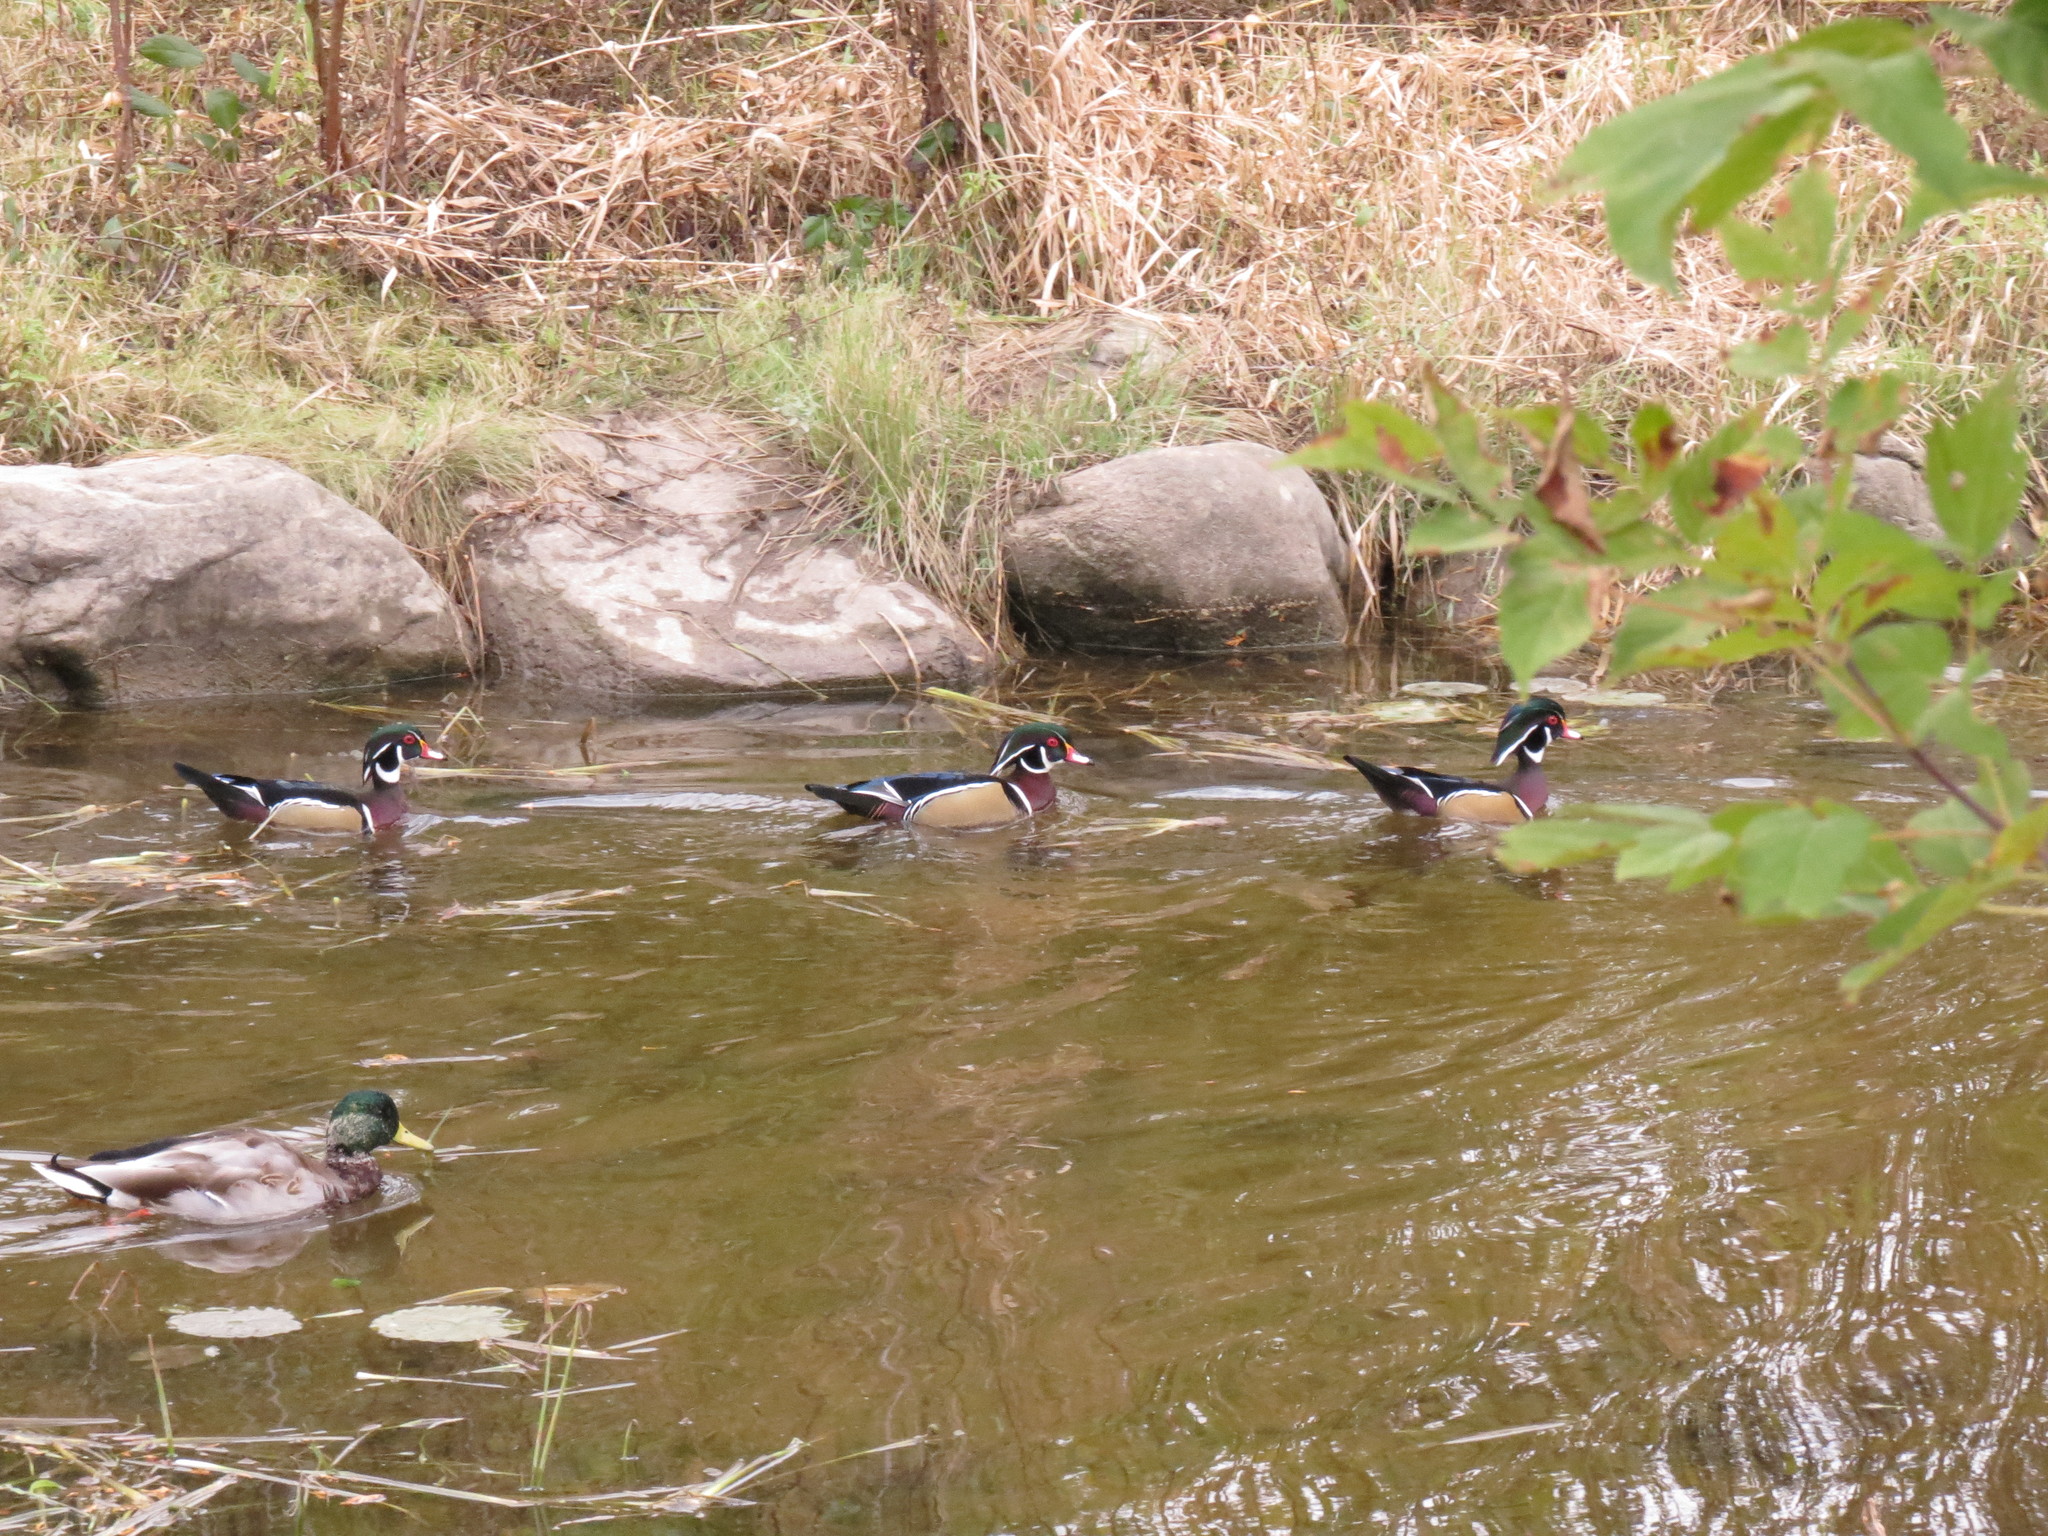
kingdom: Animalia
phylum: Chordata
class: Aves
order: Anseriformes
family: Anatidae
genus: Aix
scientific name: Aix sponsa
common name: Wood duck
